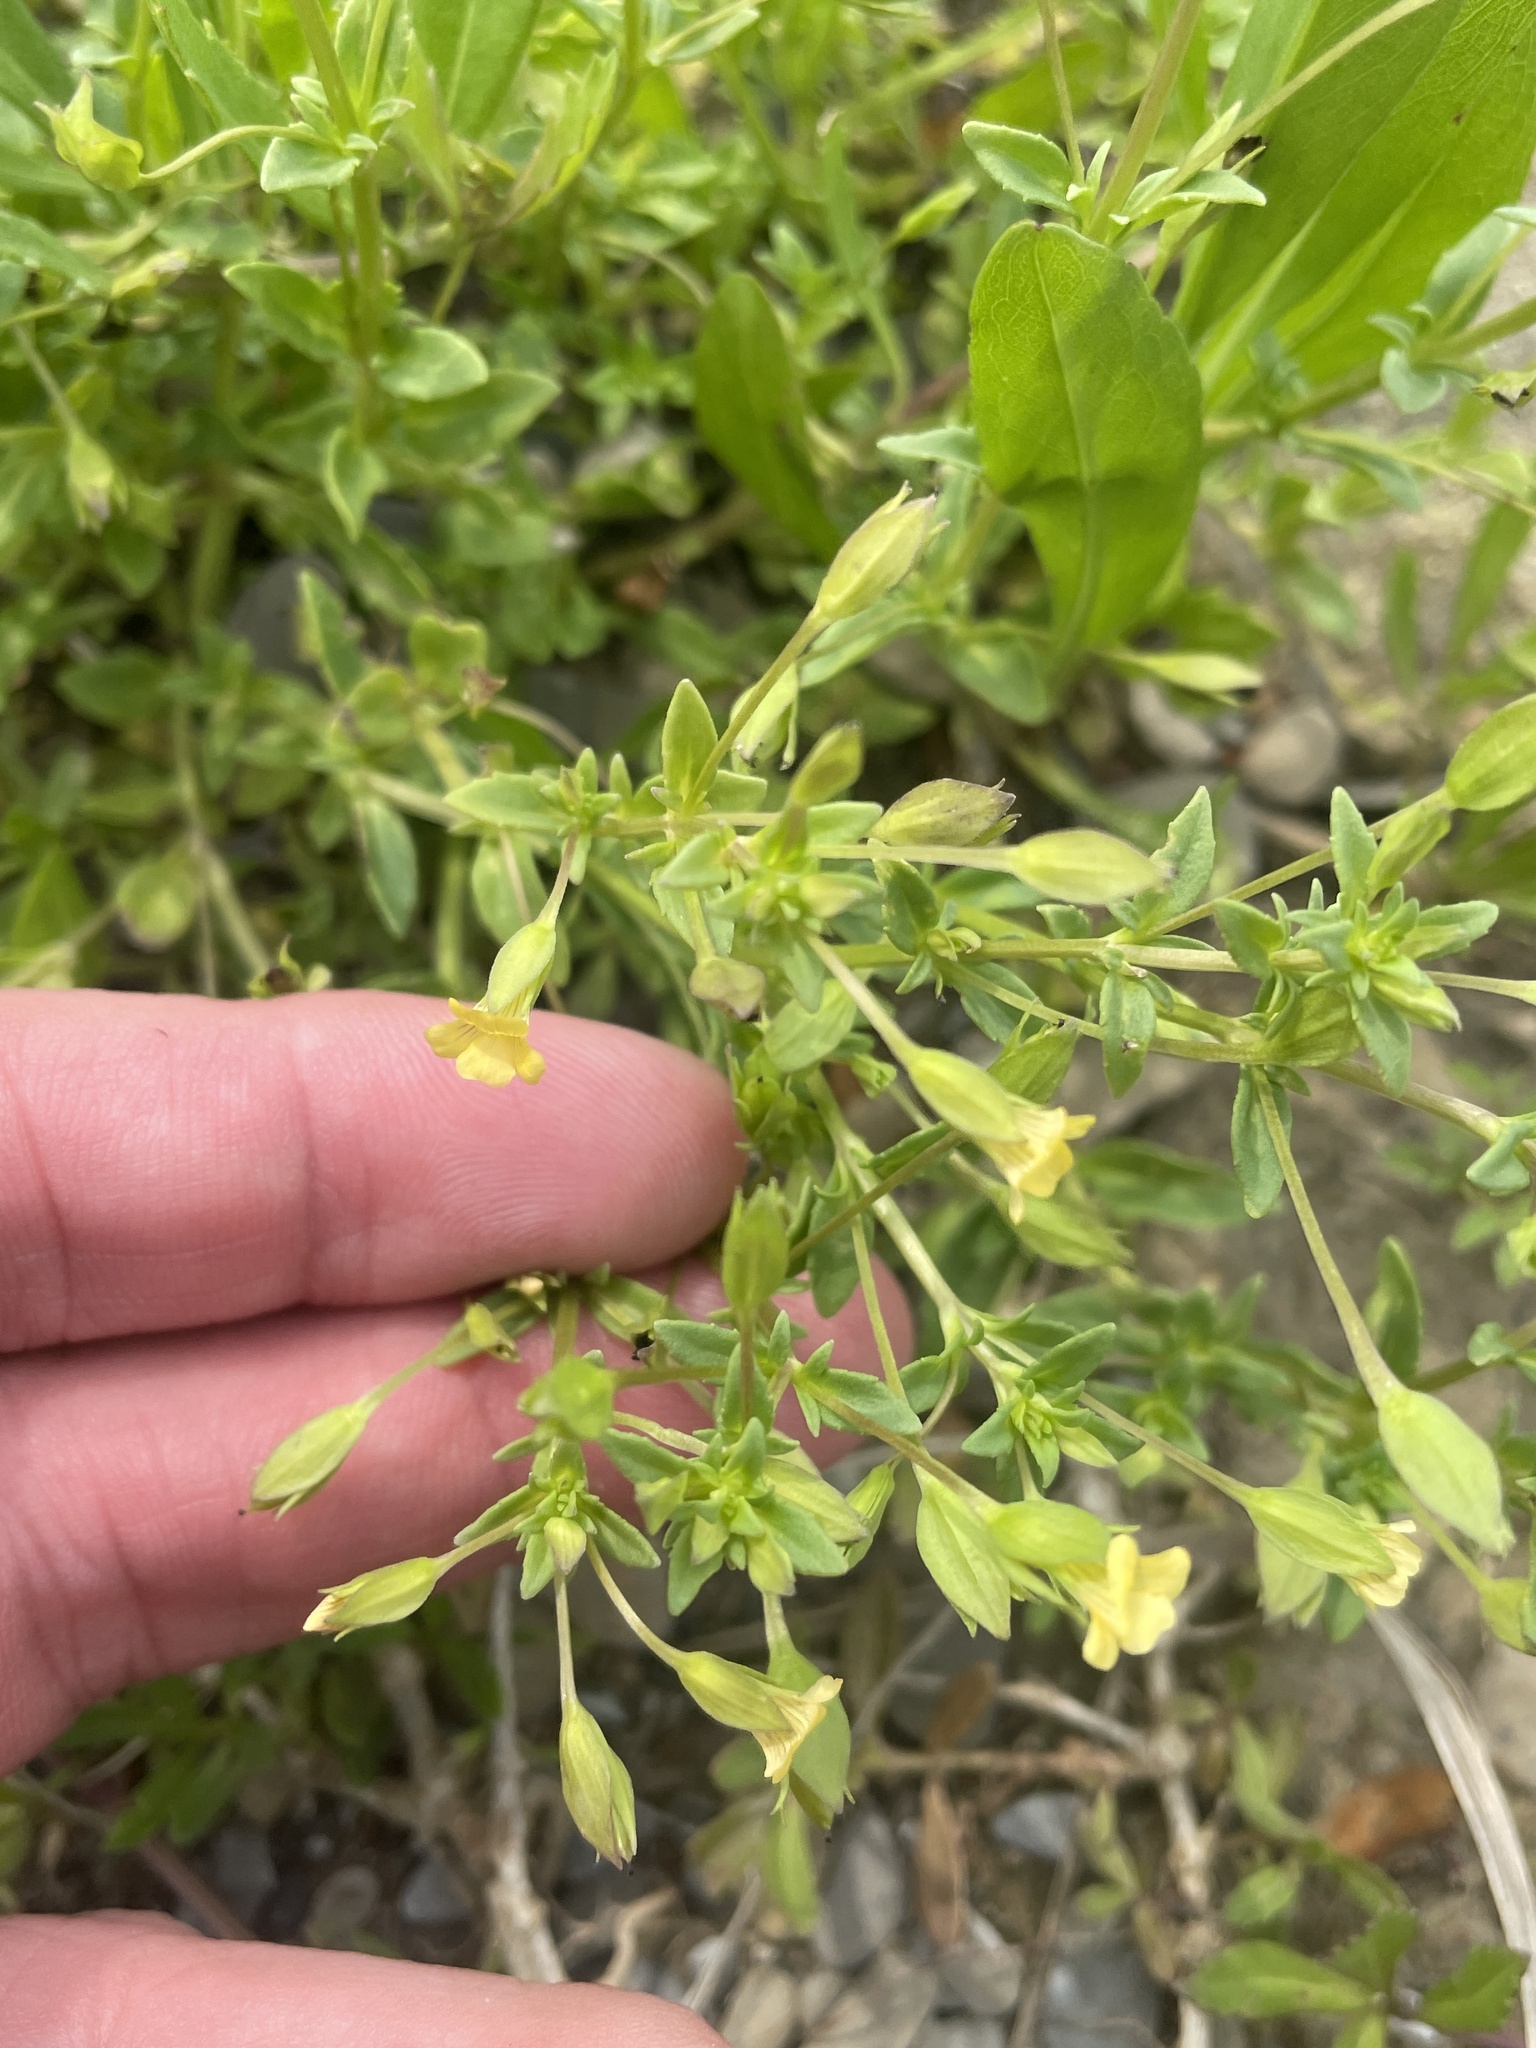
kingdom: Plantae
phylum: Tracheophyta
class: Magnoliopsida
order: Lamiales
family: Plantaginaceae
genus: Mecardonia
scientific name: Mecardonia procumbens
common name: Baby jump-up
